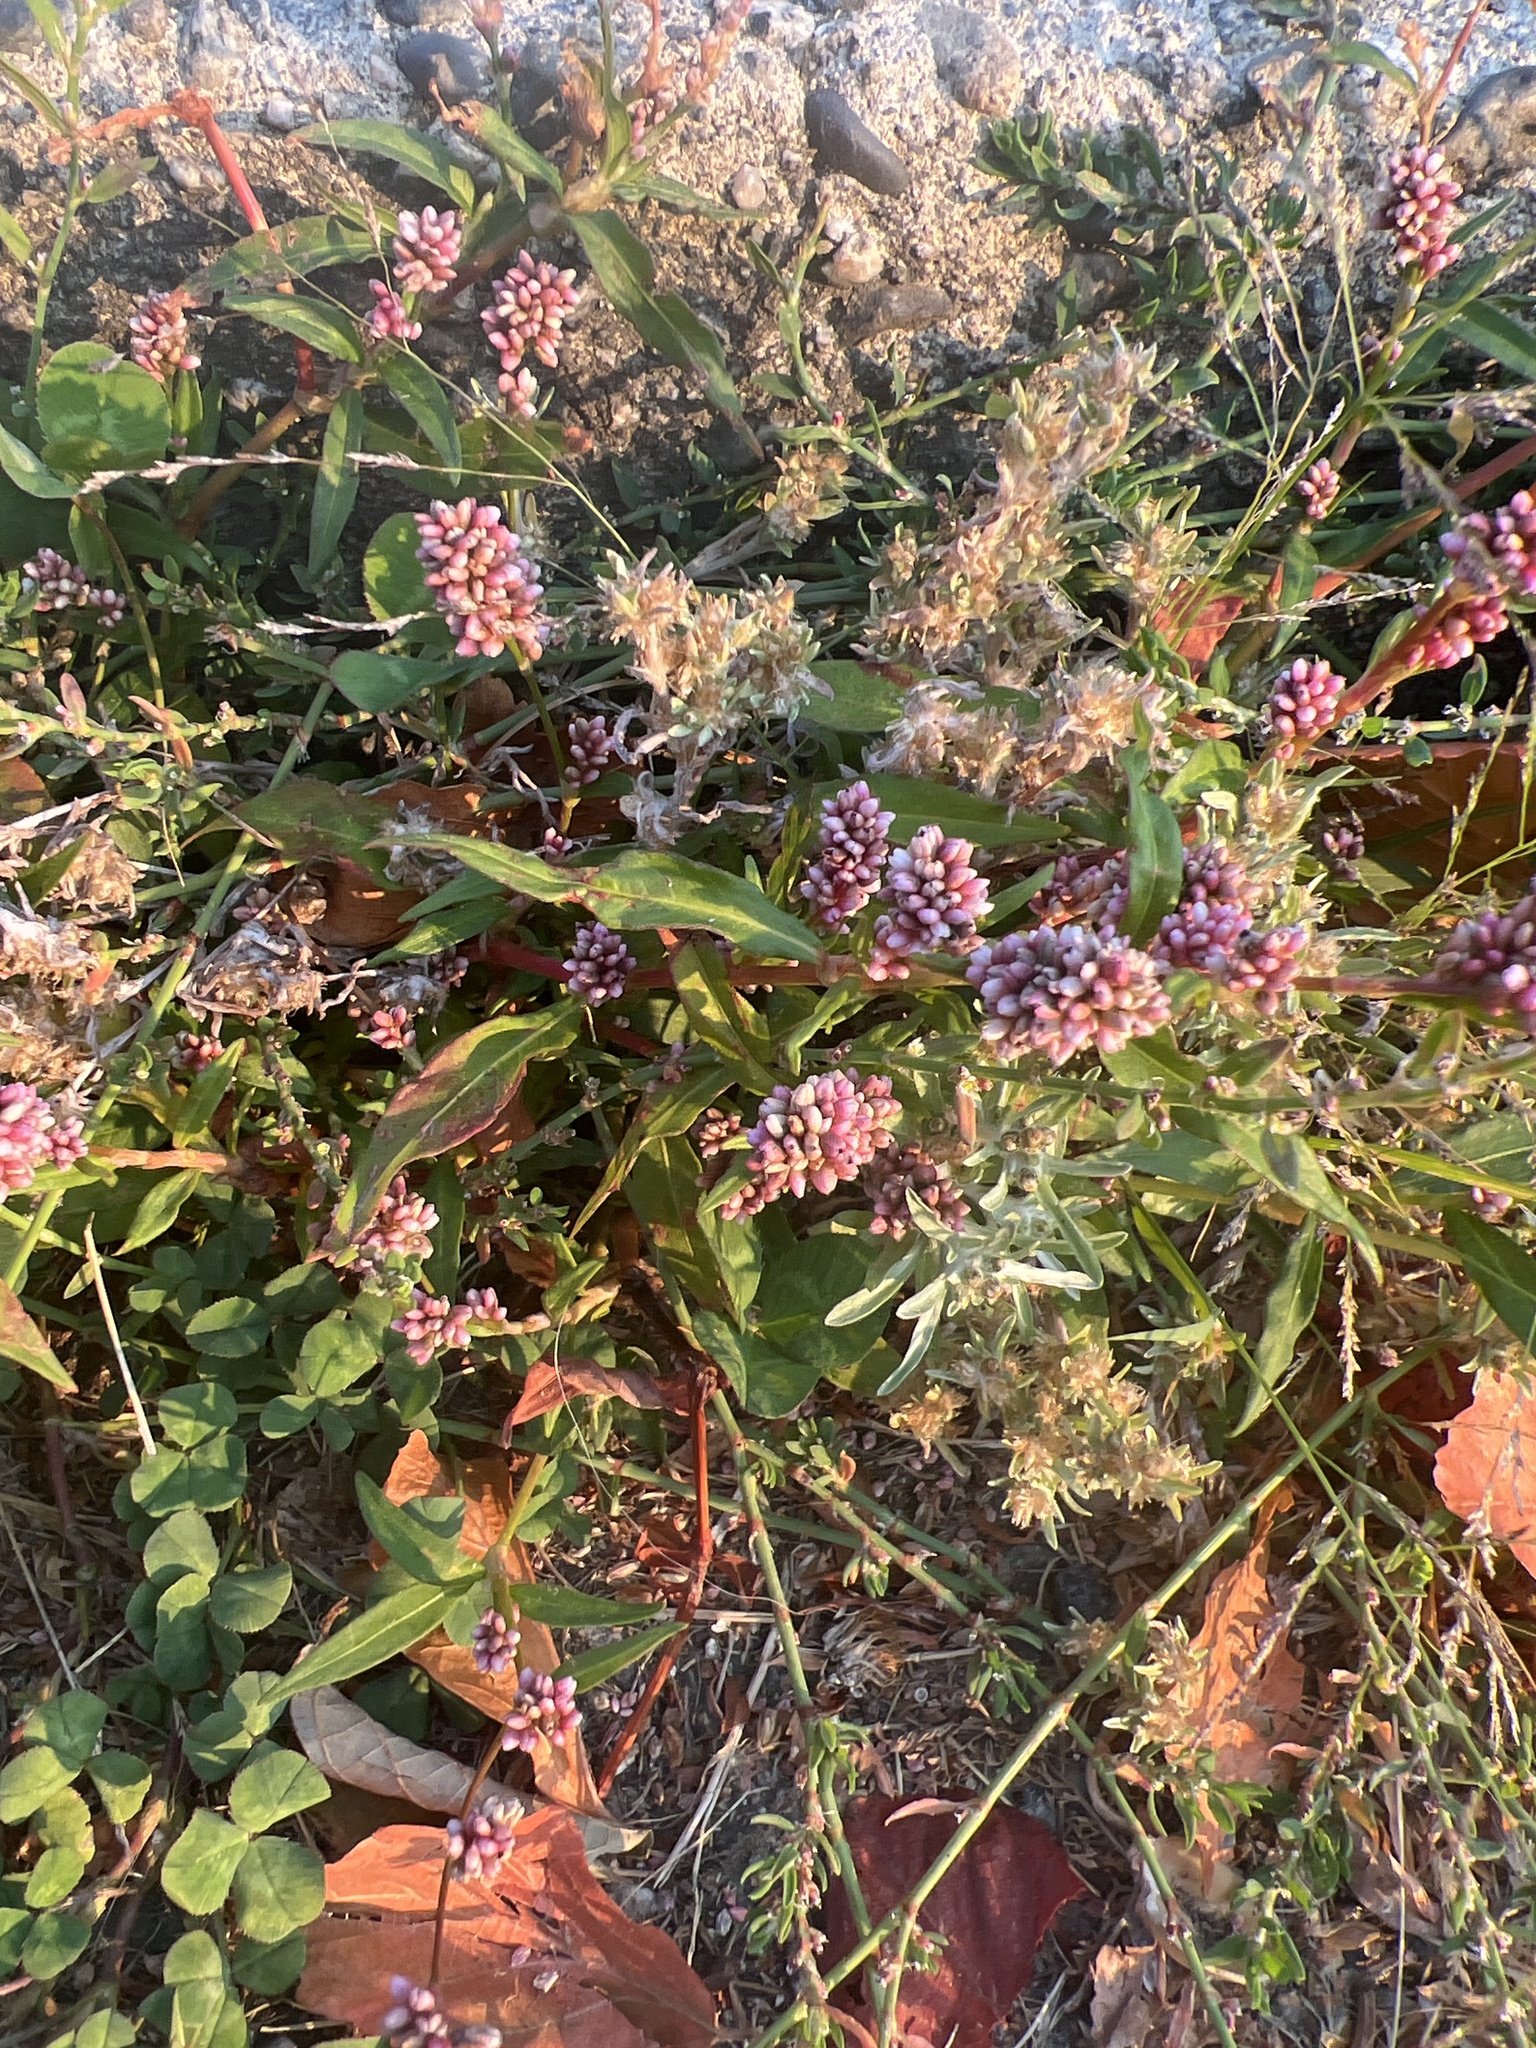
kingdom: Plantae
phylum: Tracheophyta
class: Magnoliopsida
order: Caryophyllales
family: Polygonaceae
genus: Persicaria
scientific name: Persicaria maculosa
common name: Redshank
